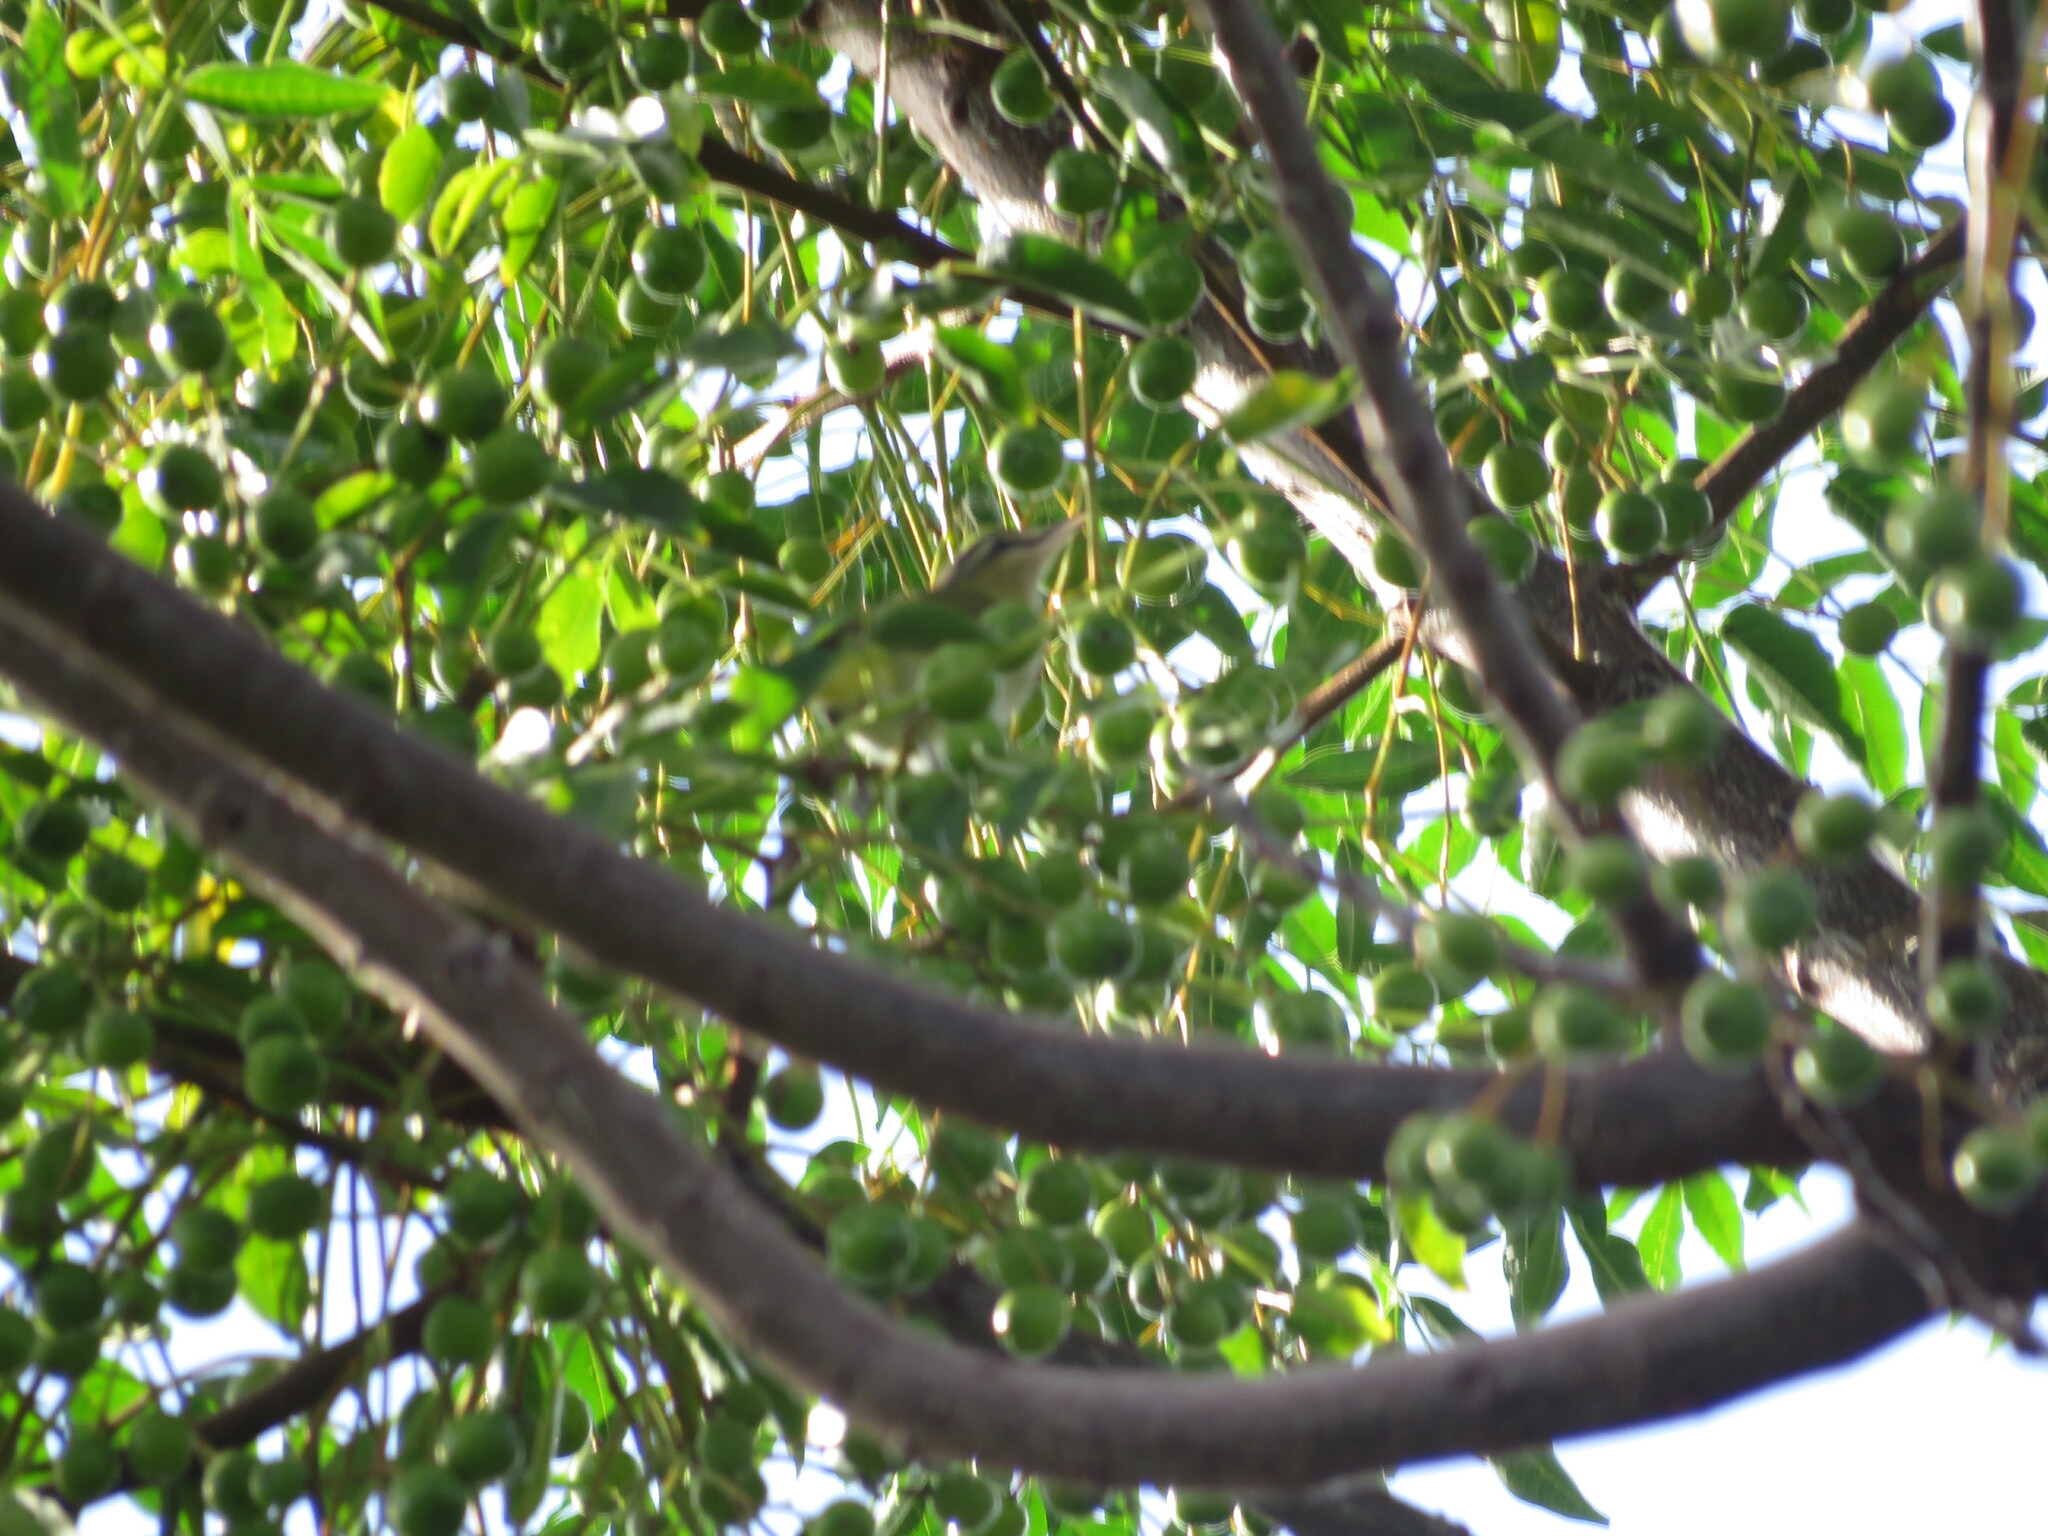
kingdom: Animalia
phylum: Chordata
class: Aves
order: Passeriformes
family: Vireonidae
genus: Vireo
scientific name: Vireo olivaceus
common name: Red-eyed vireo
